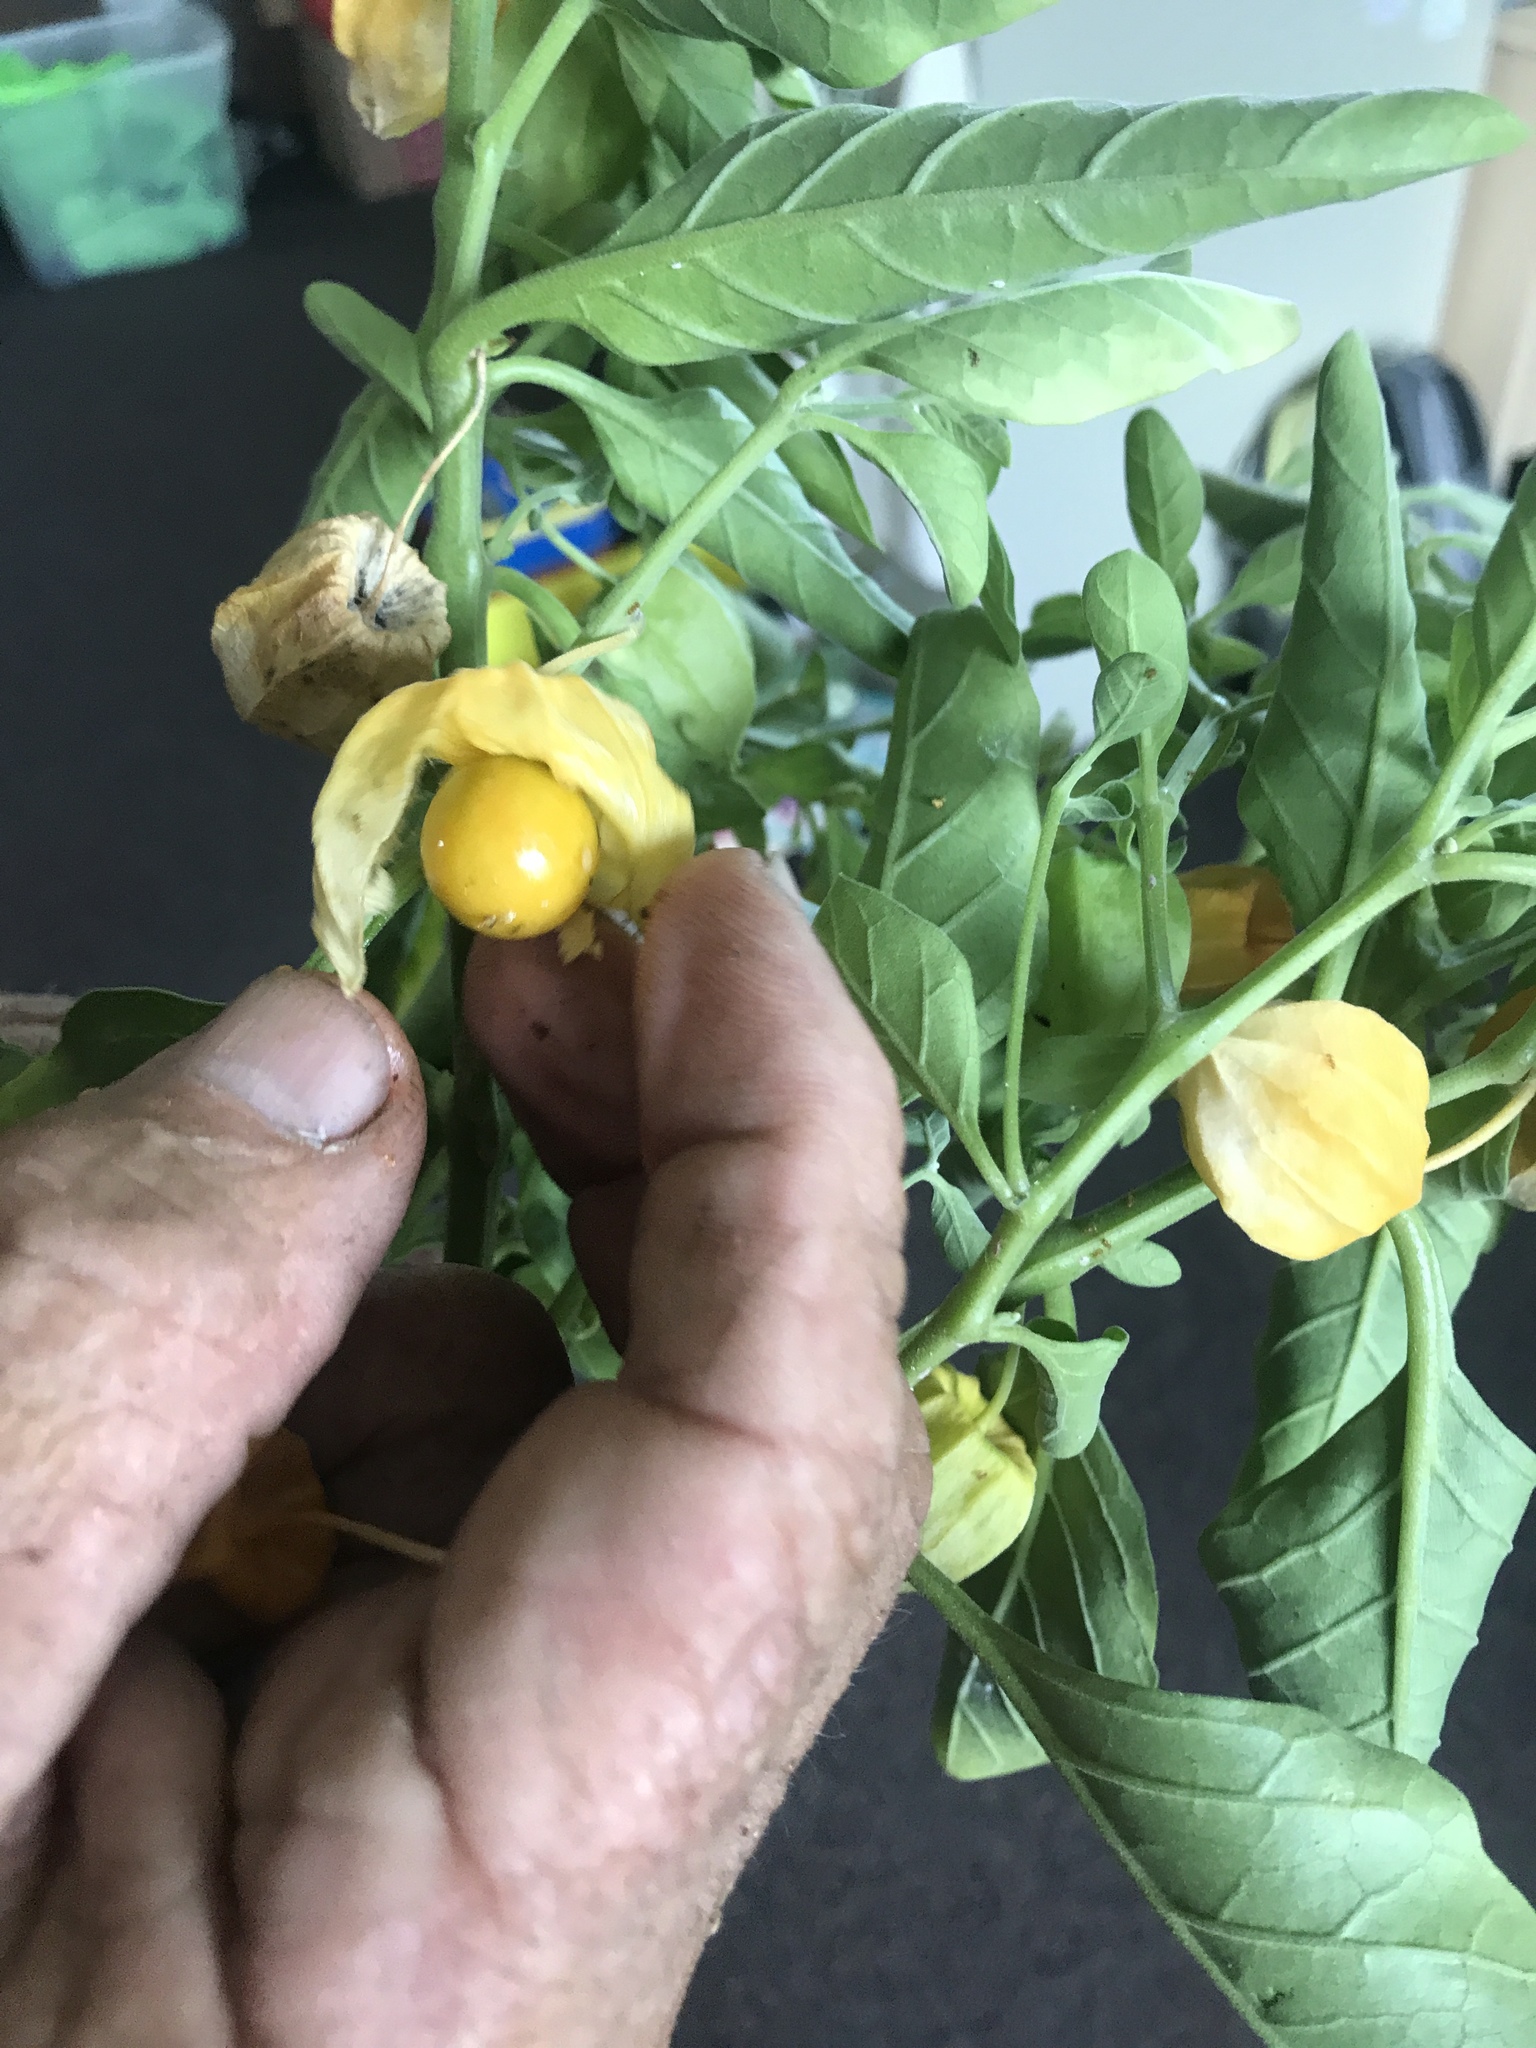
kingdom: Plantae
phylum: Tracheophyta
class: Magnoliopsida
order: Solanales
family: Solanaceae
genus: Physalis
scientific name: Physalis walteri
